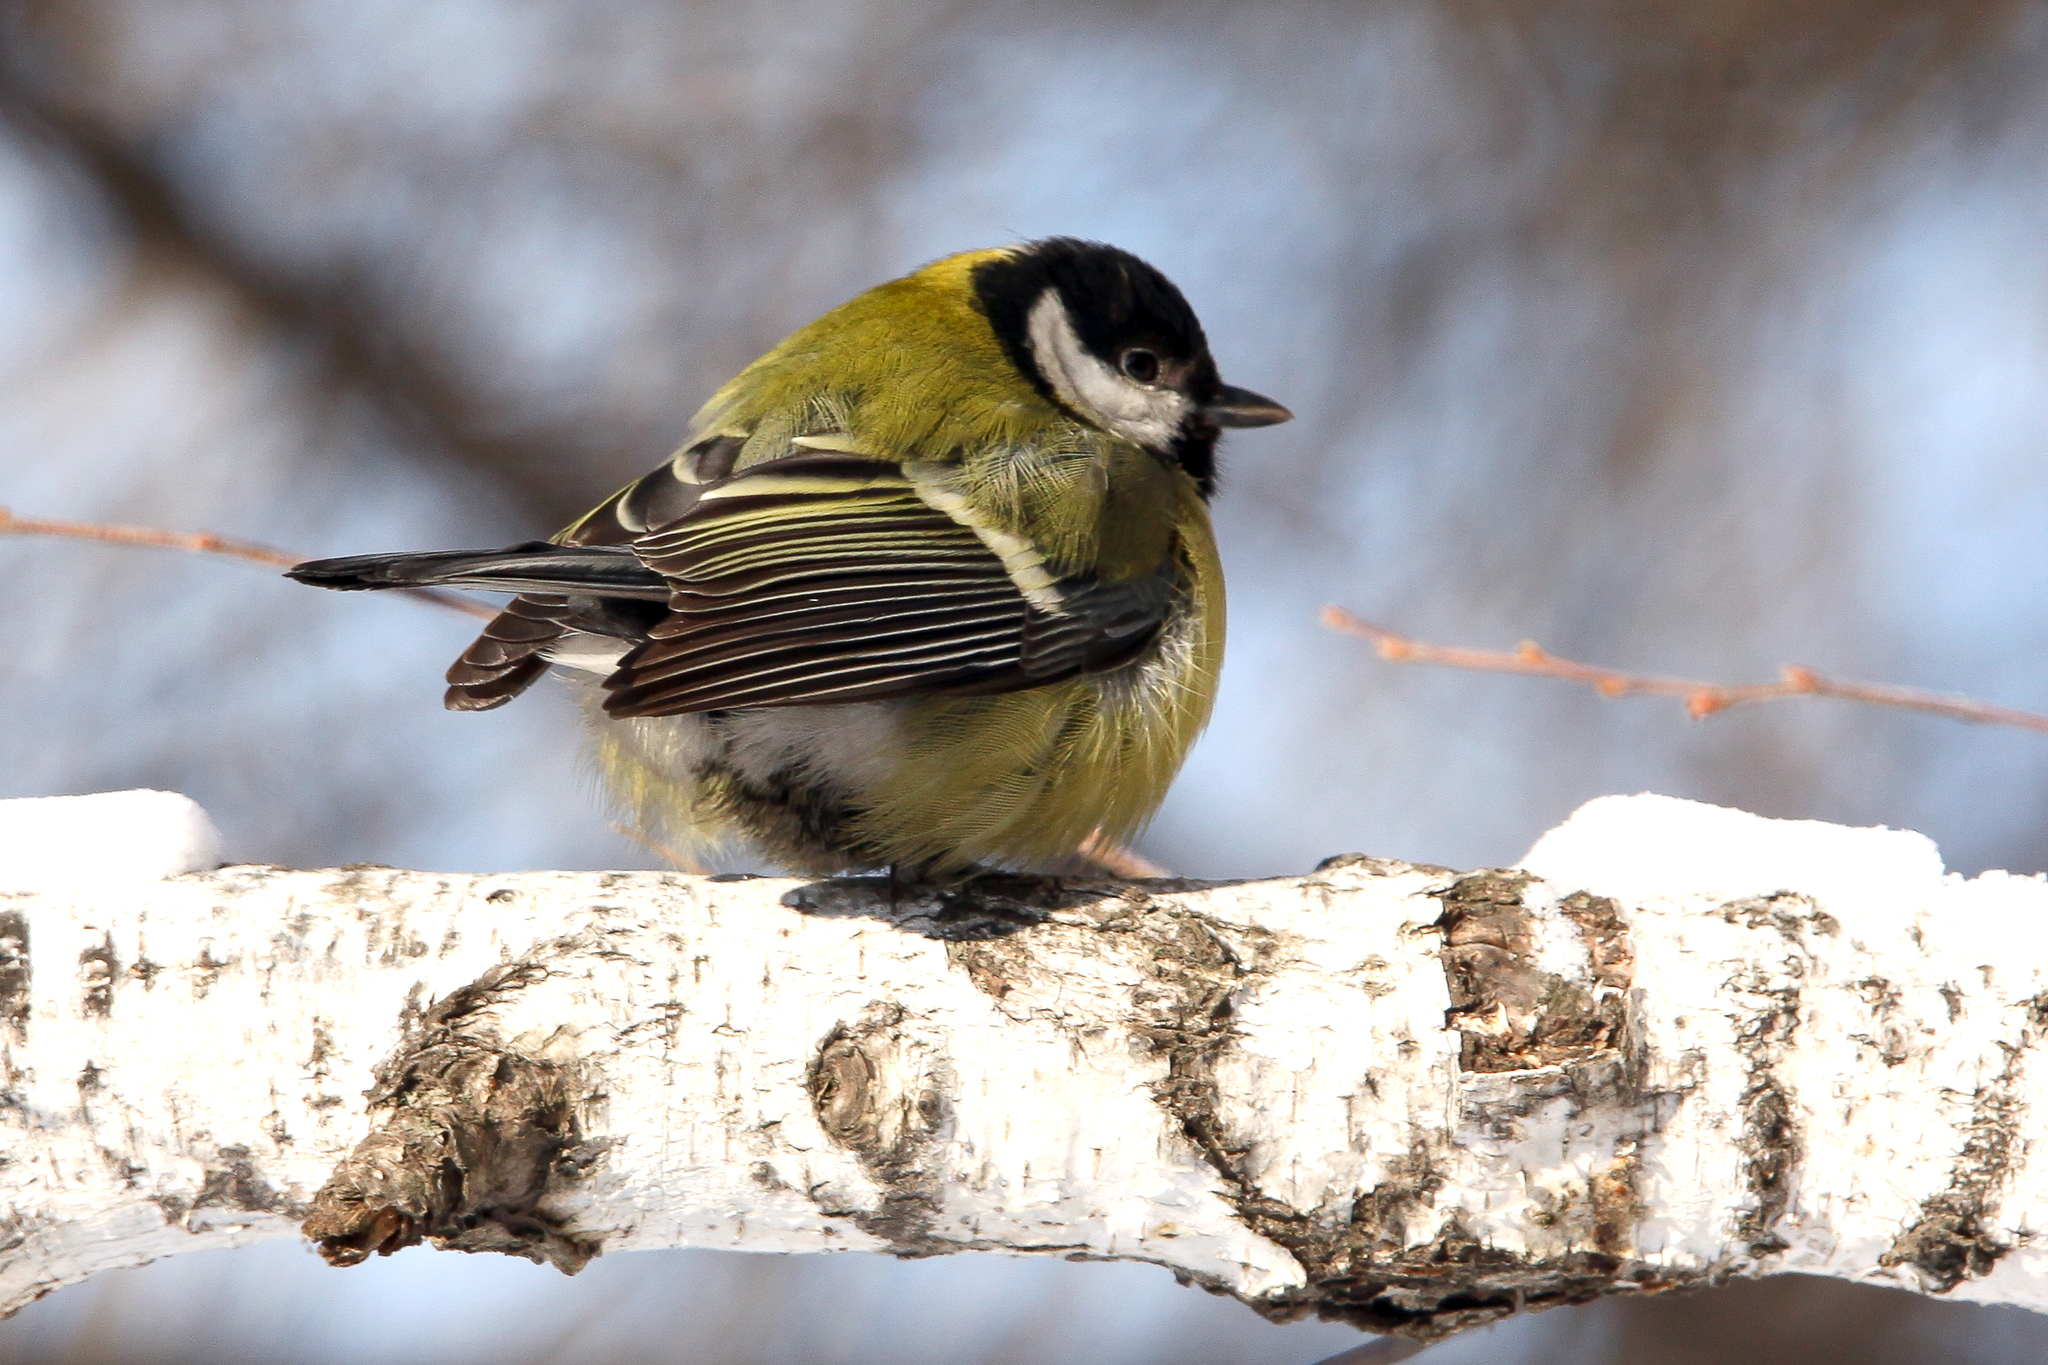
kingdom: Animalia
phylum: Chordata
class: Aves
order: Passeriformes
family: Paridae
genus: Parus
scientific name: Parus major
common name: Great tit
